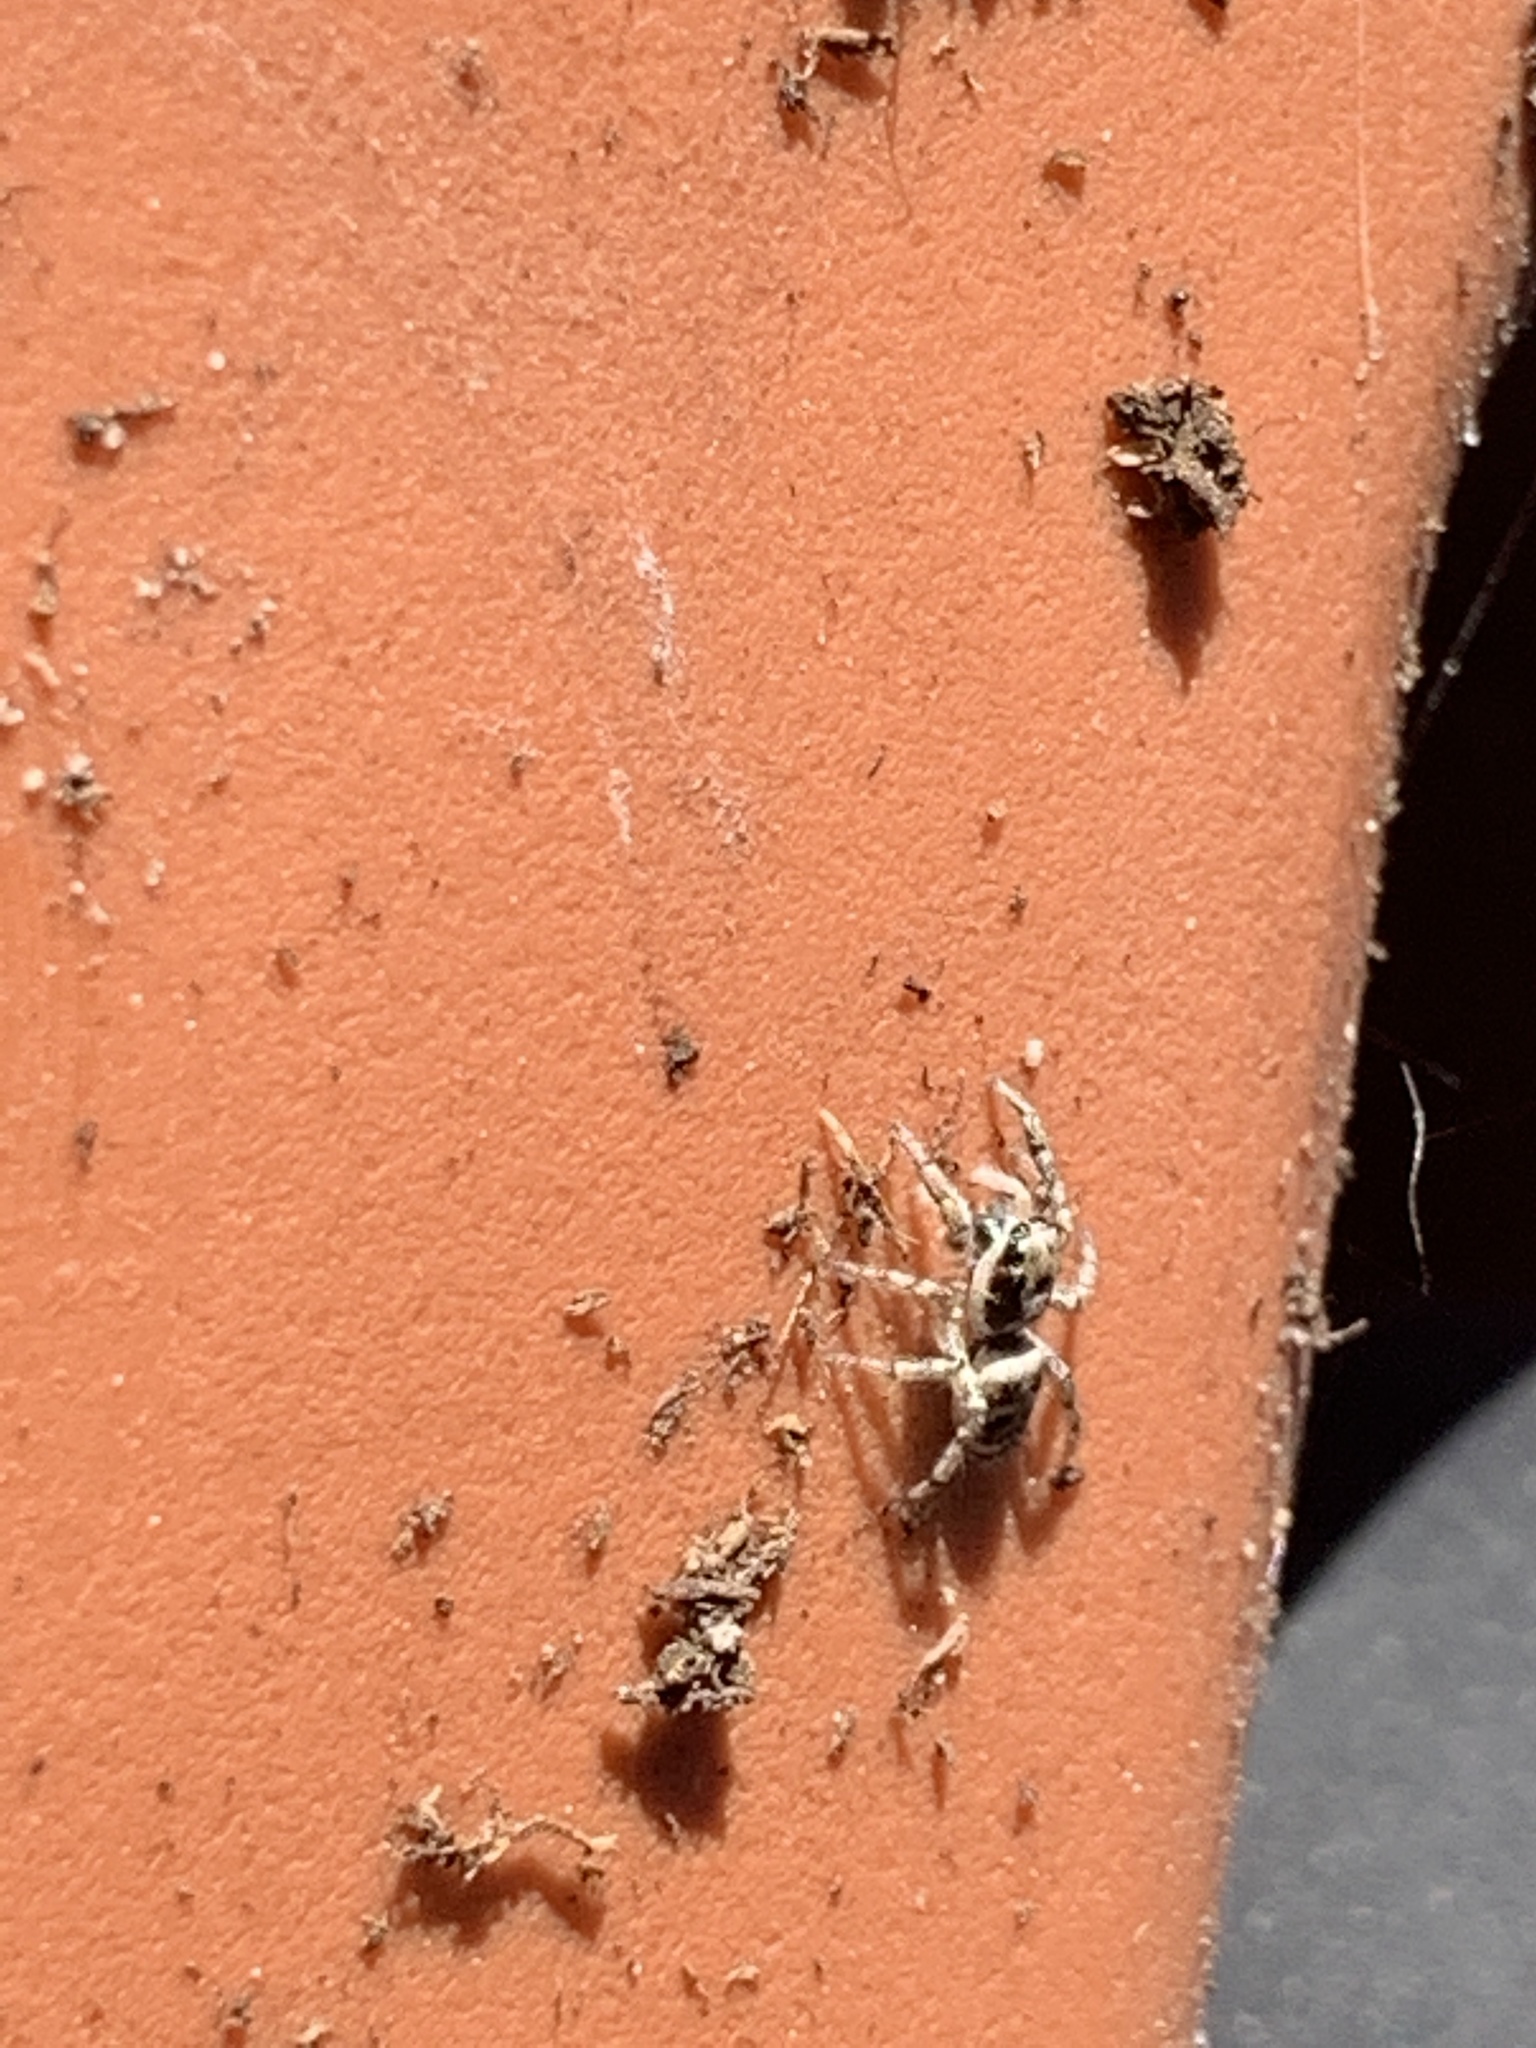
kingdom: Animalia
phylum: Arthropoda
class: Arachnida
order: Araneae
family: Salticidae
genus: Salticus
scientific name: Salticus scenicus
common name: Zebra jumper
